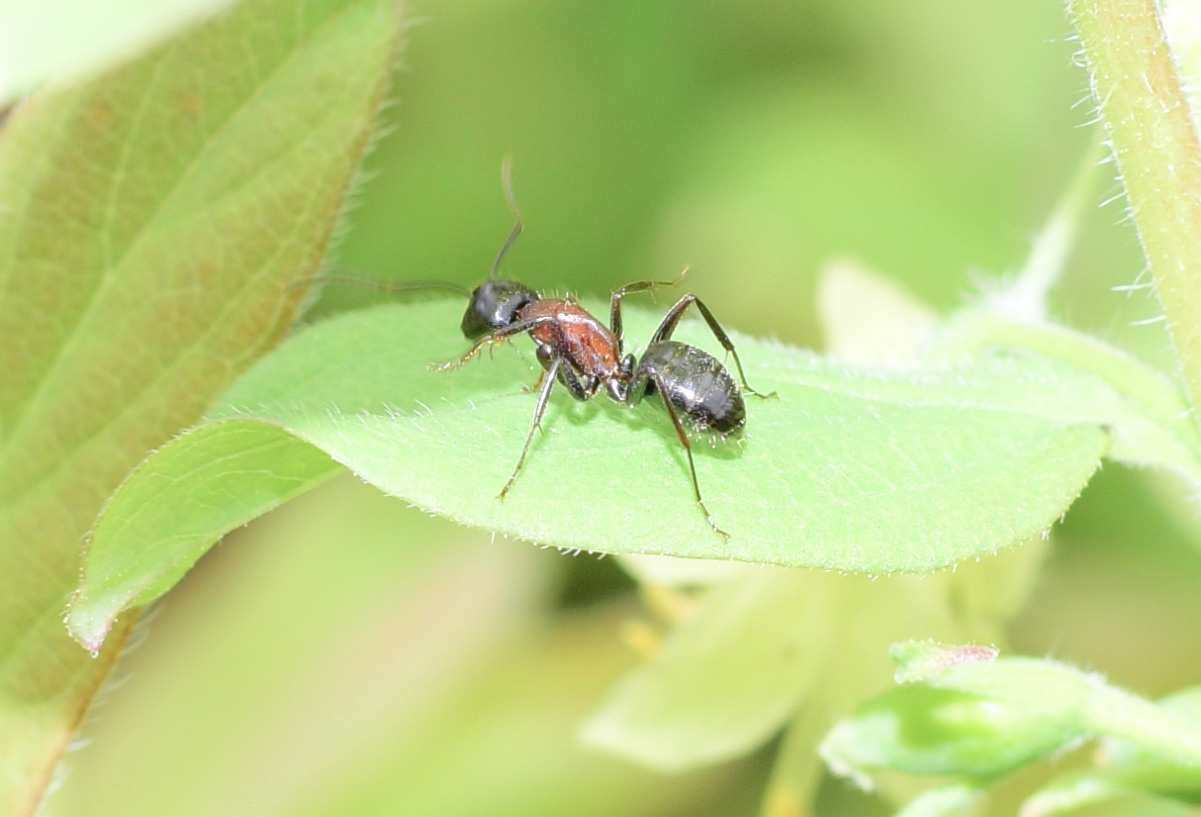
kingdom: Animalia
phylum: Arthropoda
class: Insecta
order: Hymenoptera
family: Formicidae
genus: Camponotus
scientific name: Camponotus novaeboracensis
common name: New york carpenter ant
